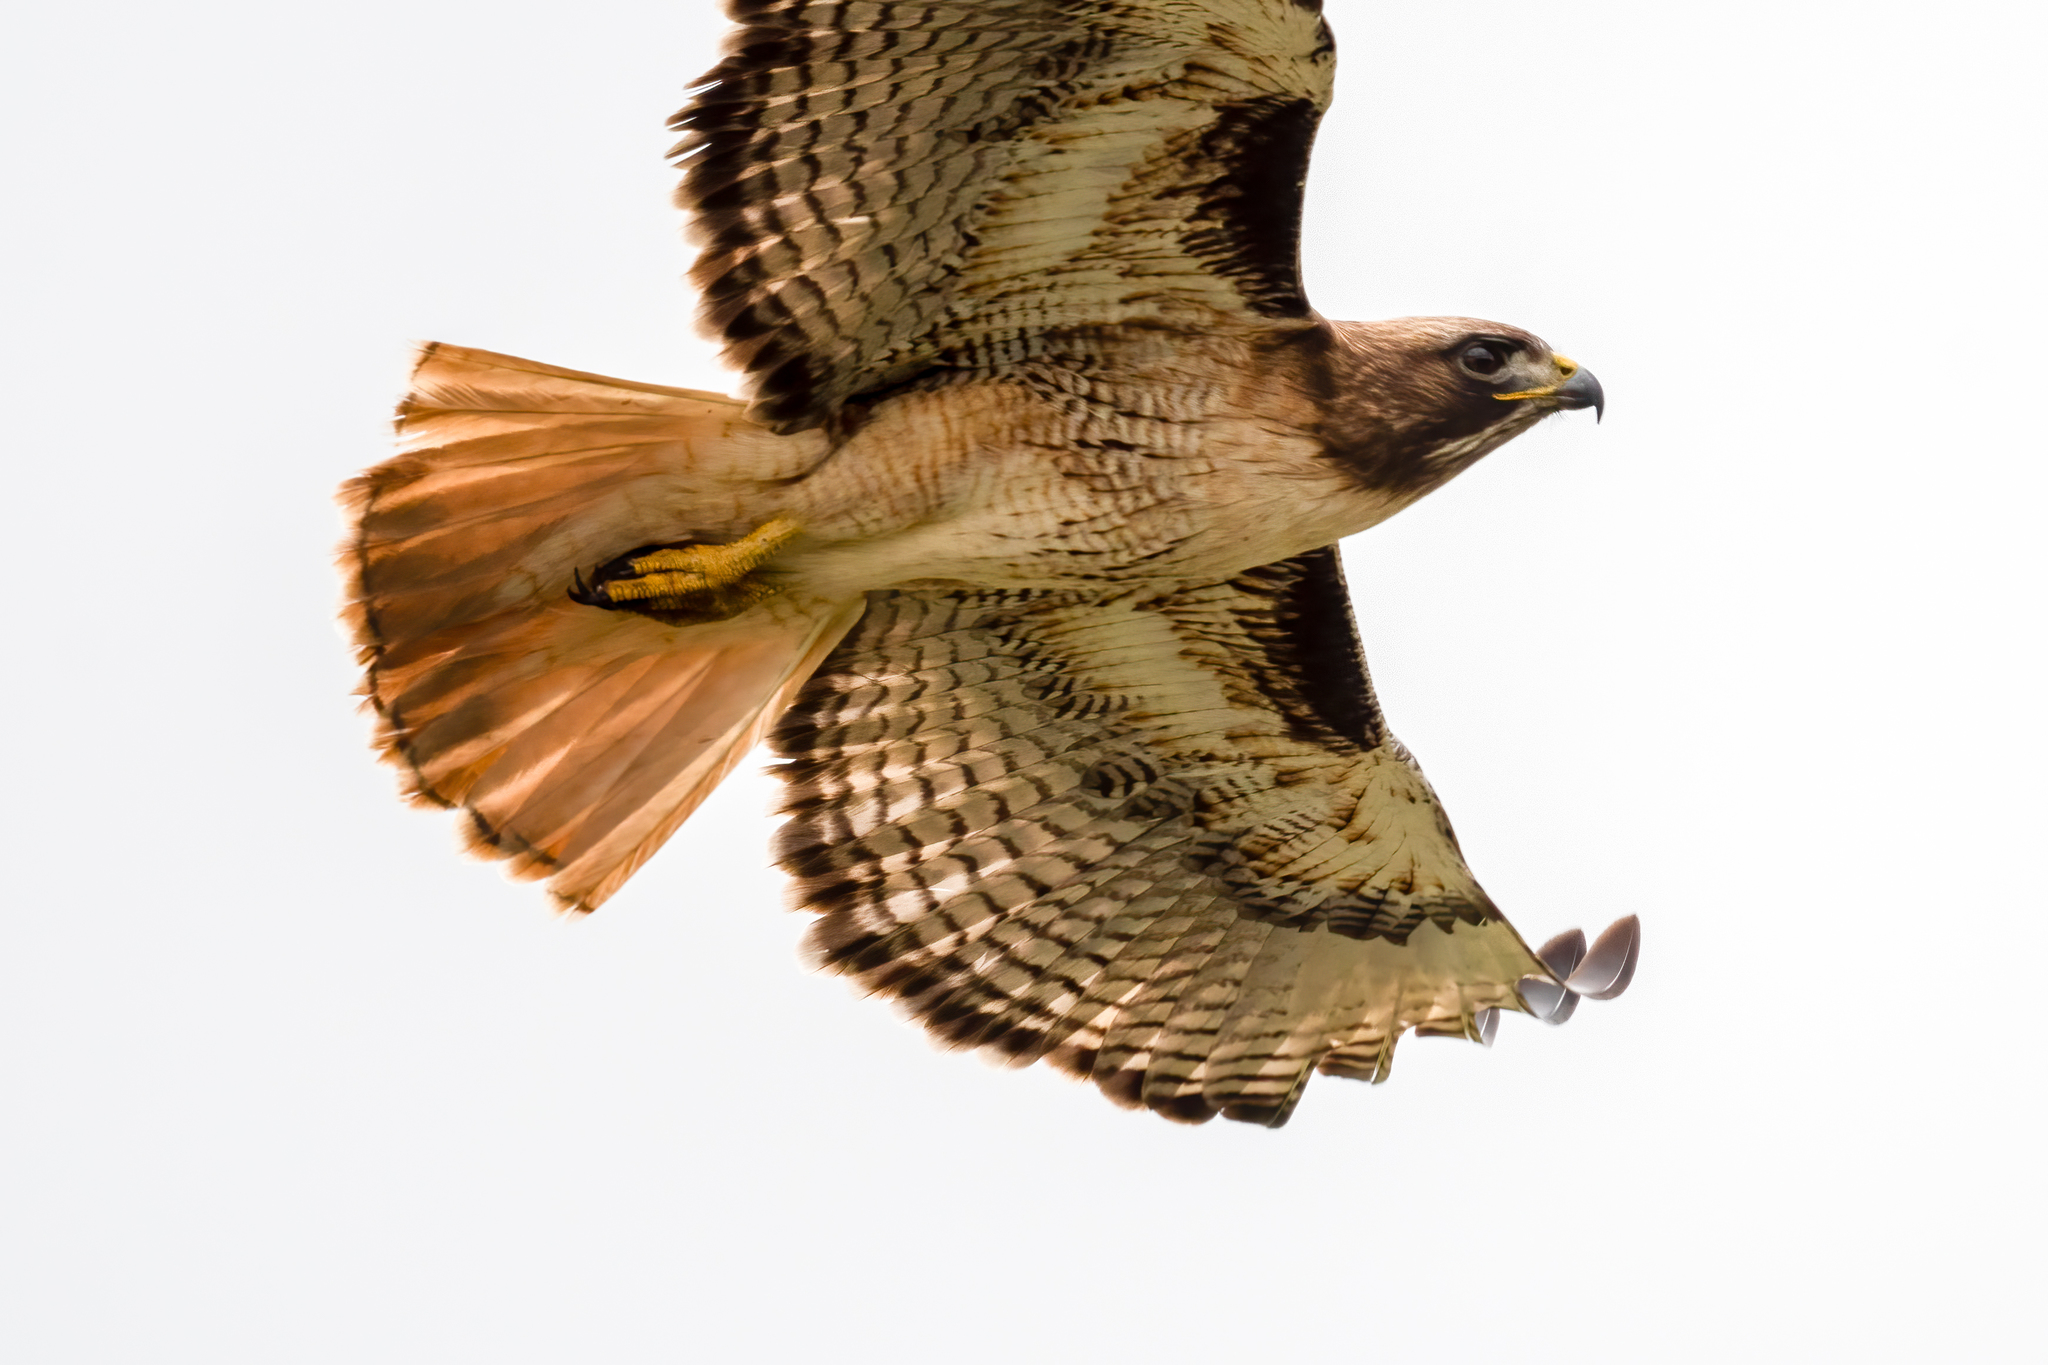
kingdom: Animalia
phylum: Chordata
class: Aves
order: Accipitriformes
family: Accipitridae
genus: Buteo
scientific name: Buteo jamaicensis
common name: Red-tailed hawk
